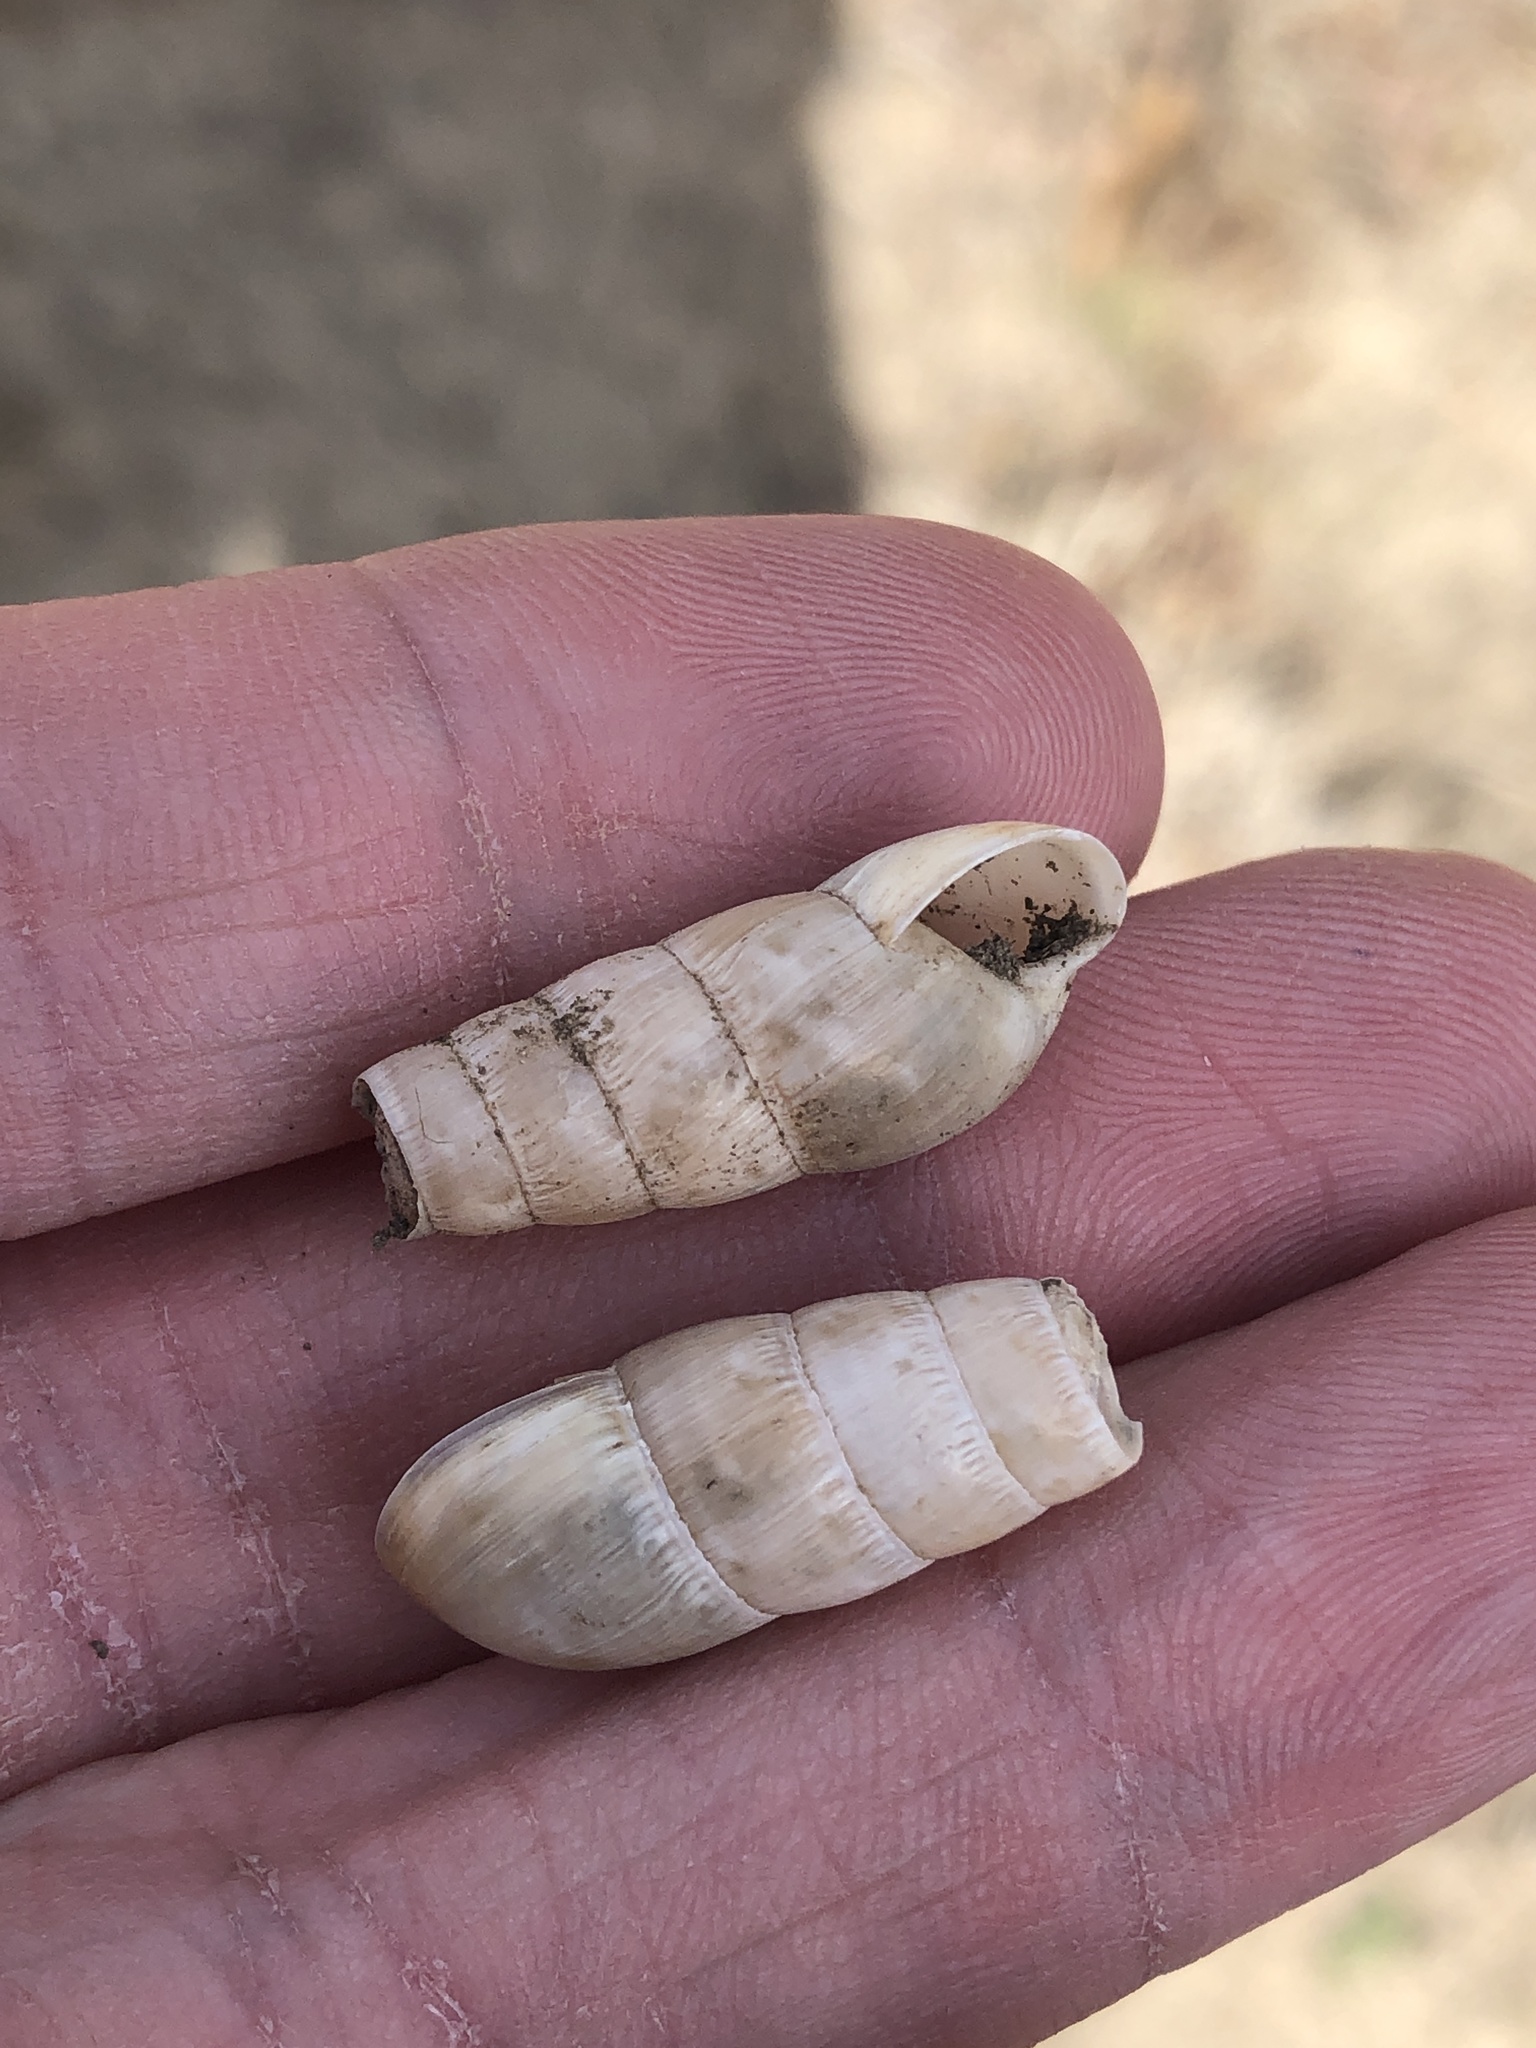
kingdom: Animalia
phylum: Mollusca
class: Gastropoda
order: Stylommatophora
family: Achatinidae
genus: Rumina
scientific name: Rumina decollata
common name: Decollate snail
